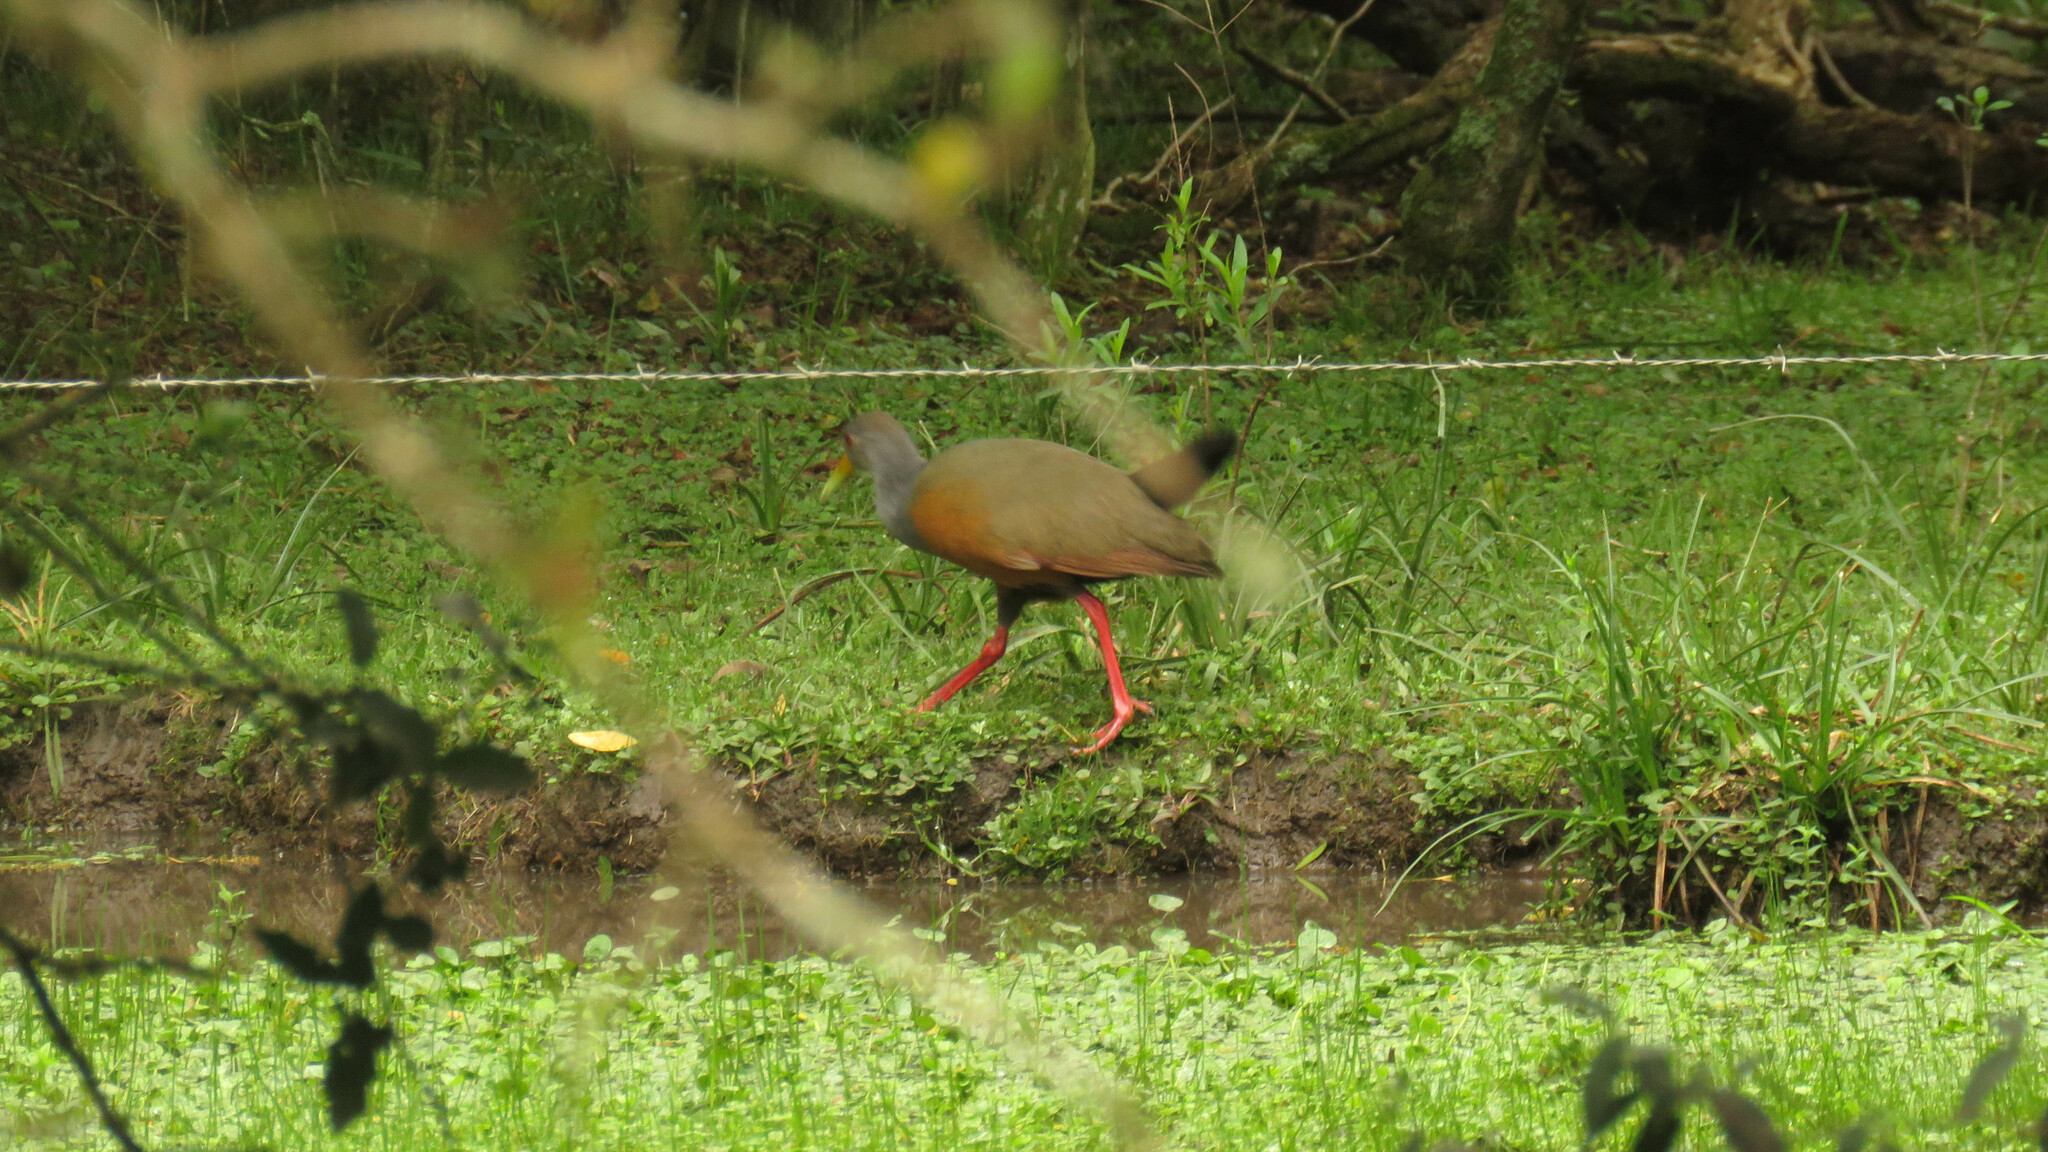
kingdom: Animalia
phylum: Chordata
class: Aves
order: Gruiformes
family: Rallidae
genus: Aramides
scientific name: Aramides cajanea
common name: Gray-necked wood-rail
